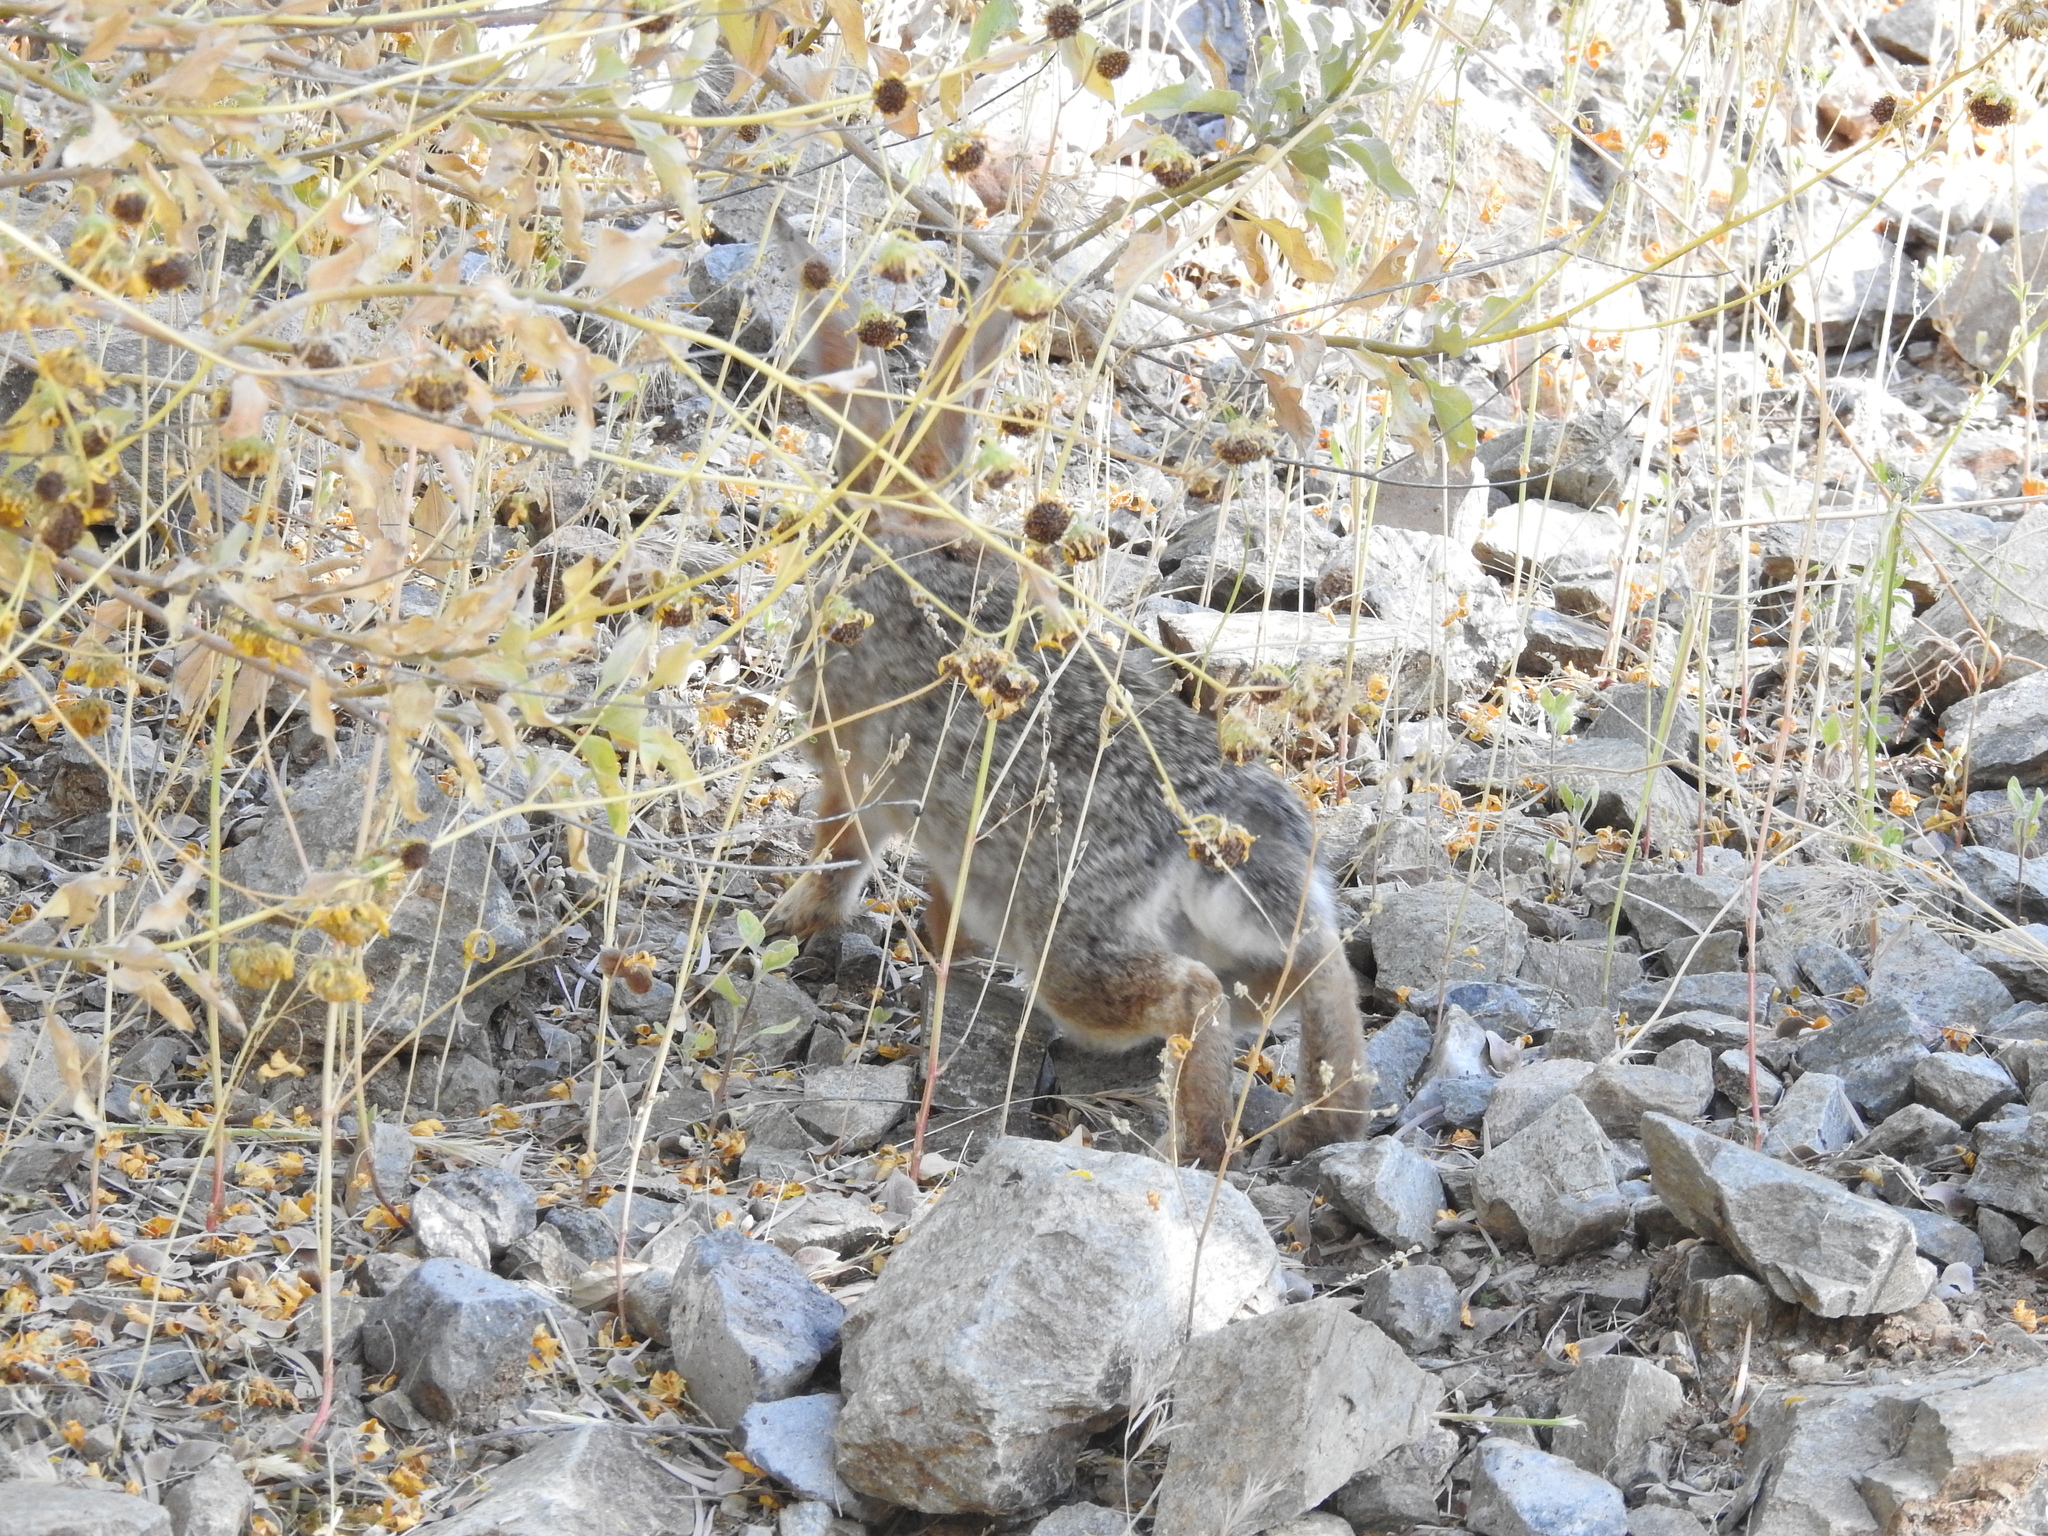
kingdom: Animalia
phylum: Chordata
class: Mammalia
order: Lagomorpha
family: Leporidae
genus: Sylvilagus
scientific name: Sylvilagus audubonii
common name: Desert cottontail
